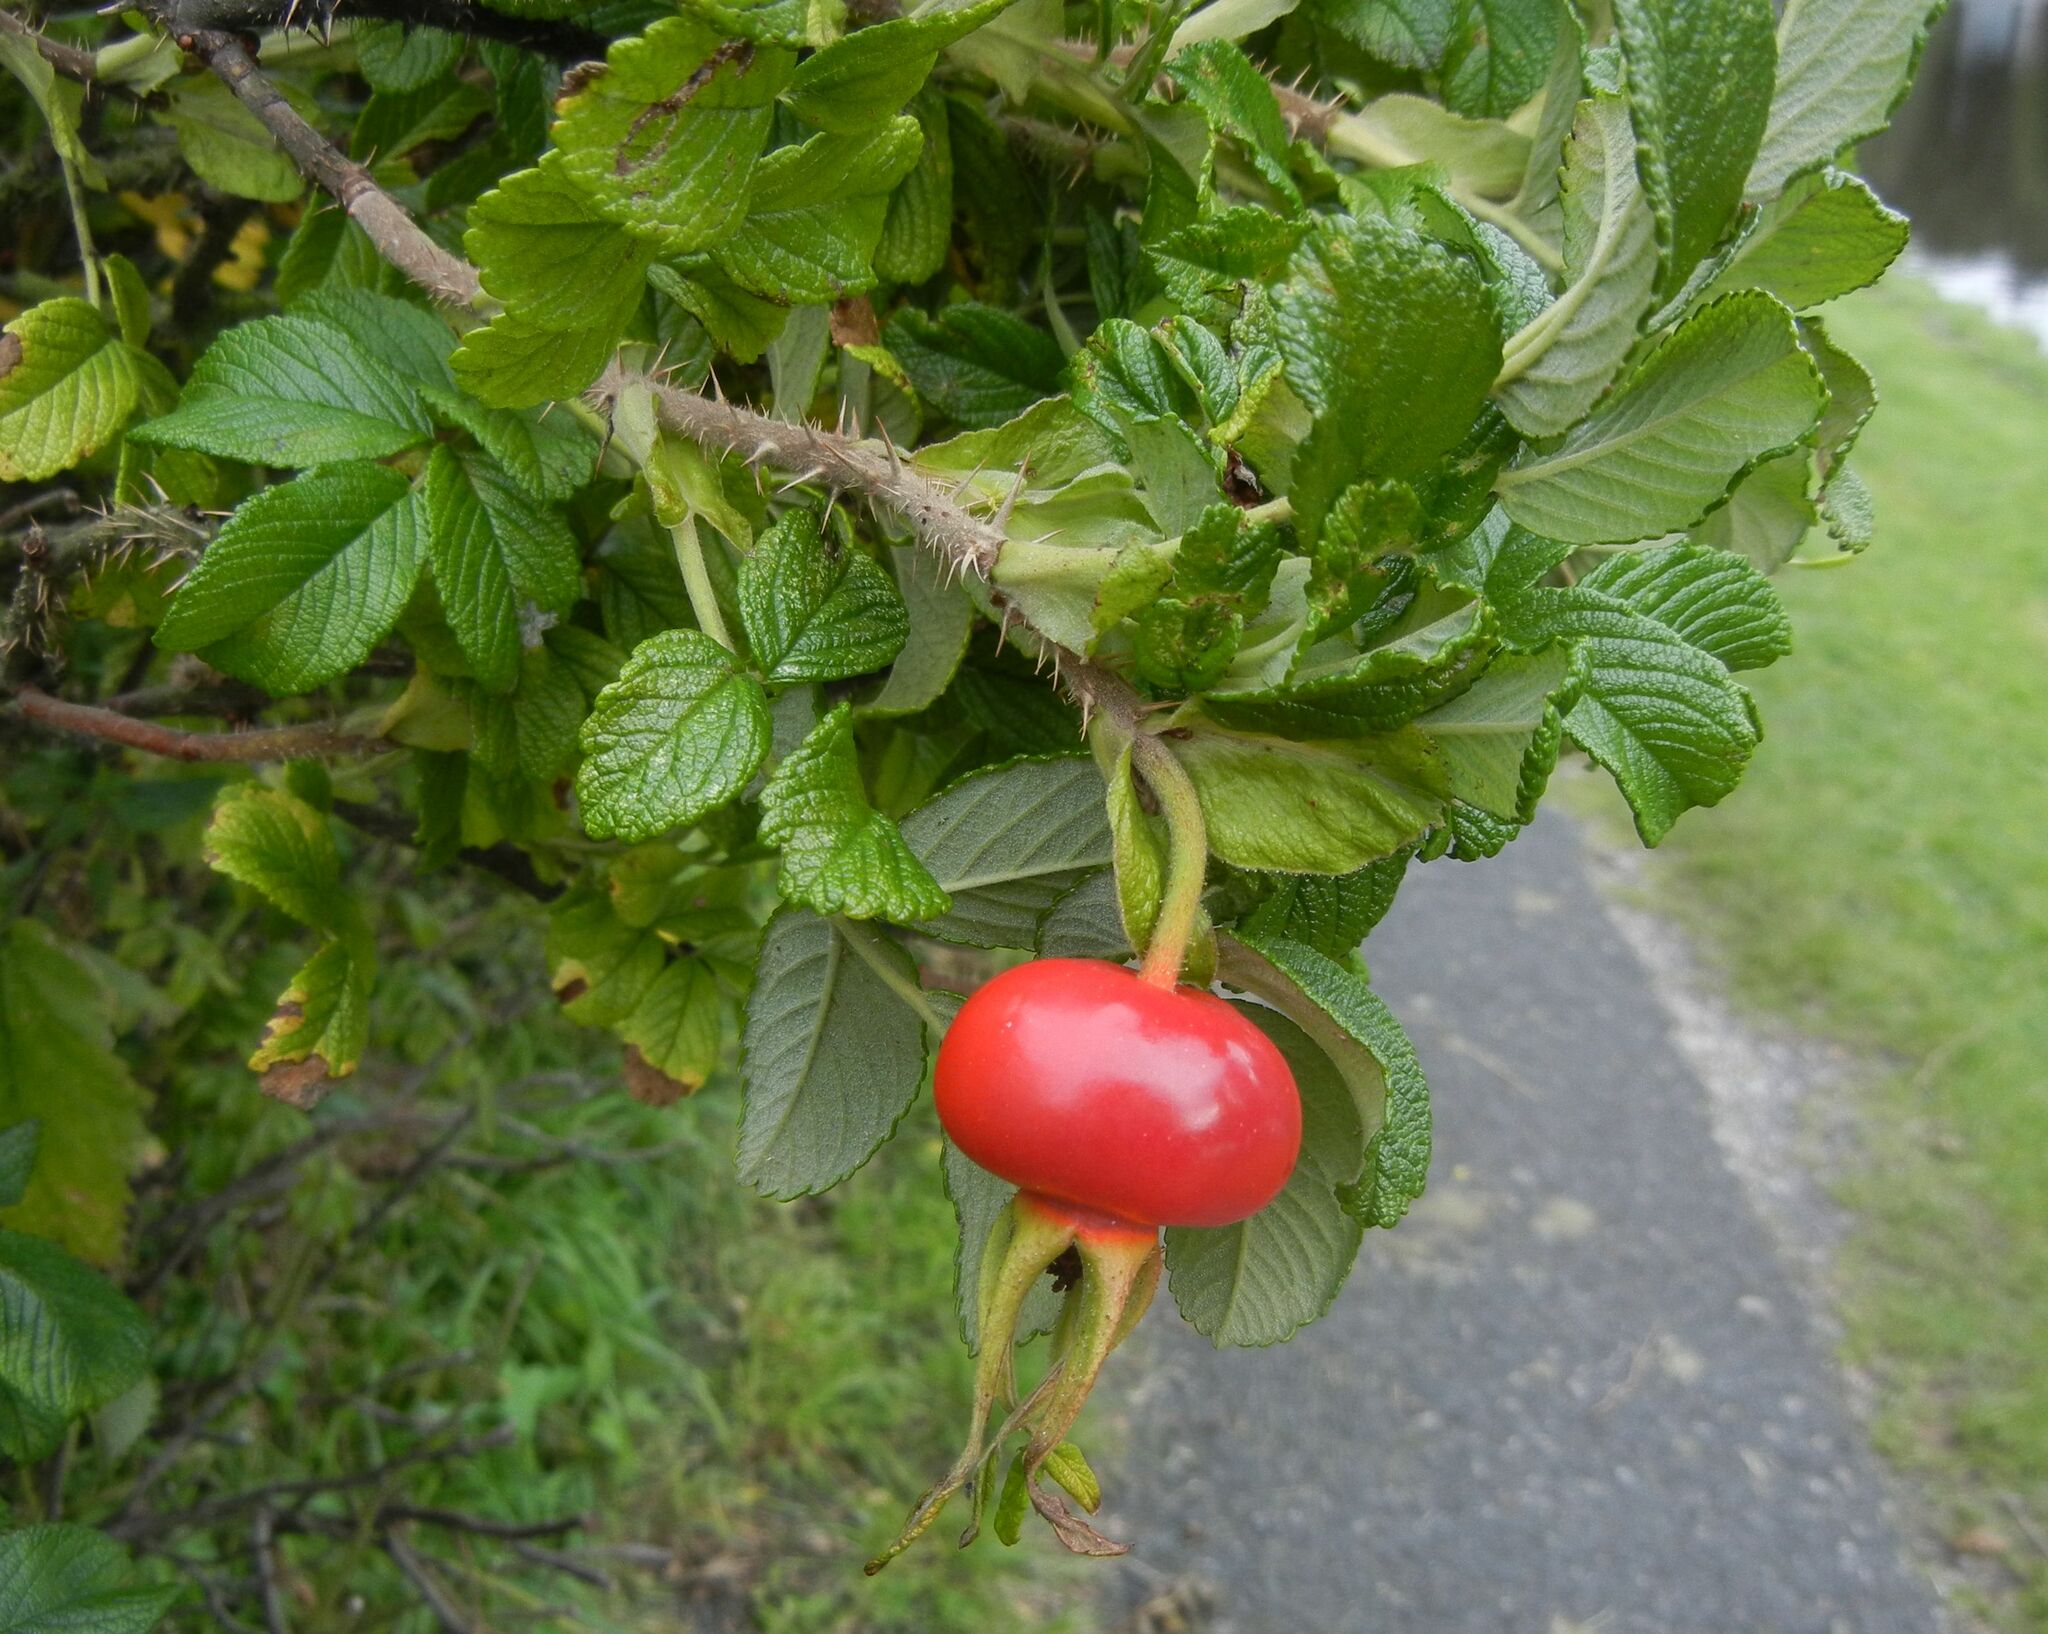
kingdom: Plantae
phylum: Tracheophyta
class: Magnoliopsida
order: Rosales
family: Rosaceae
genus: Rosa
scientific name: Rosa rugosa
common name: Japanese rose
